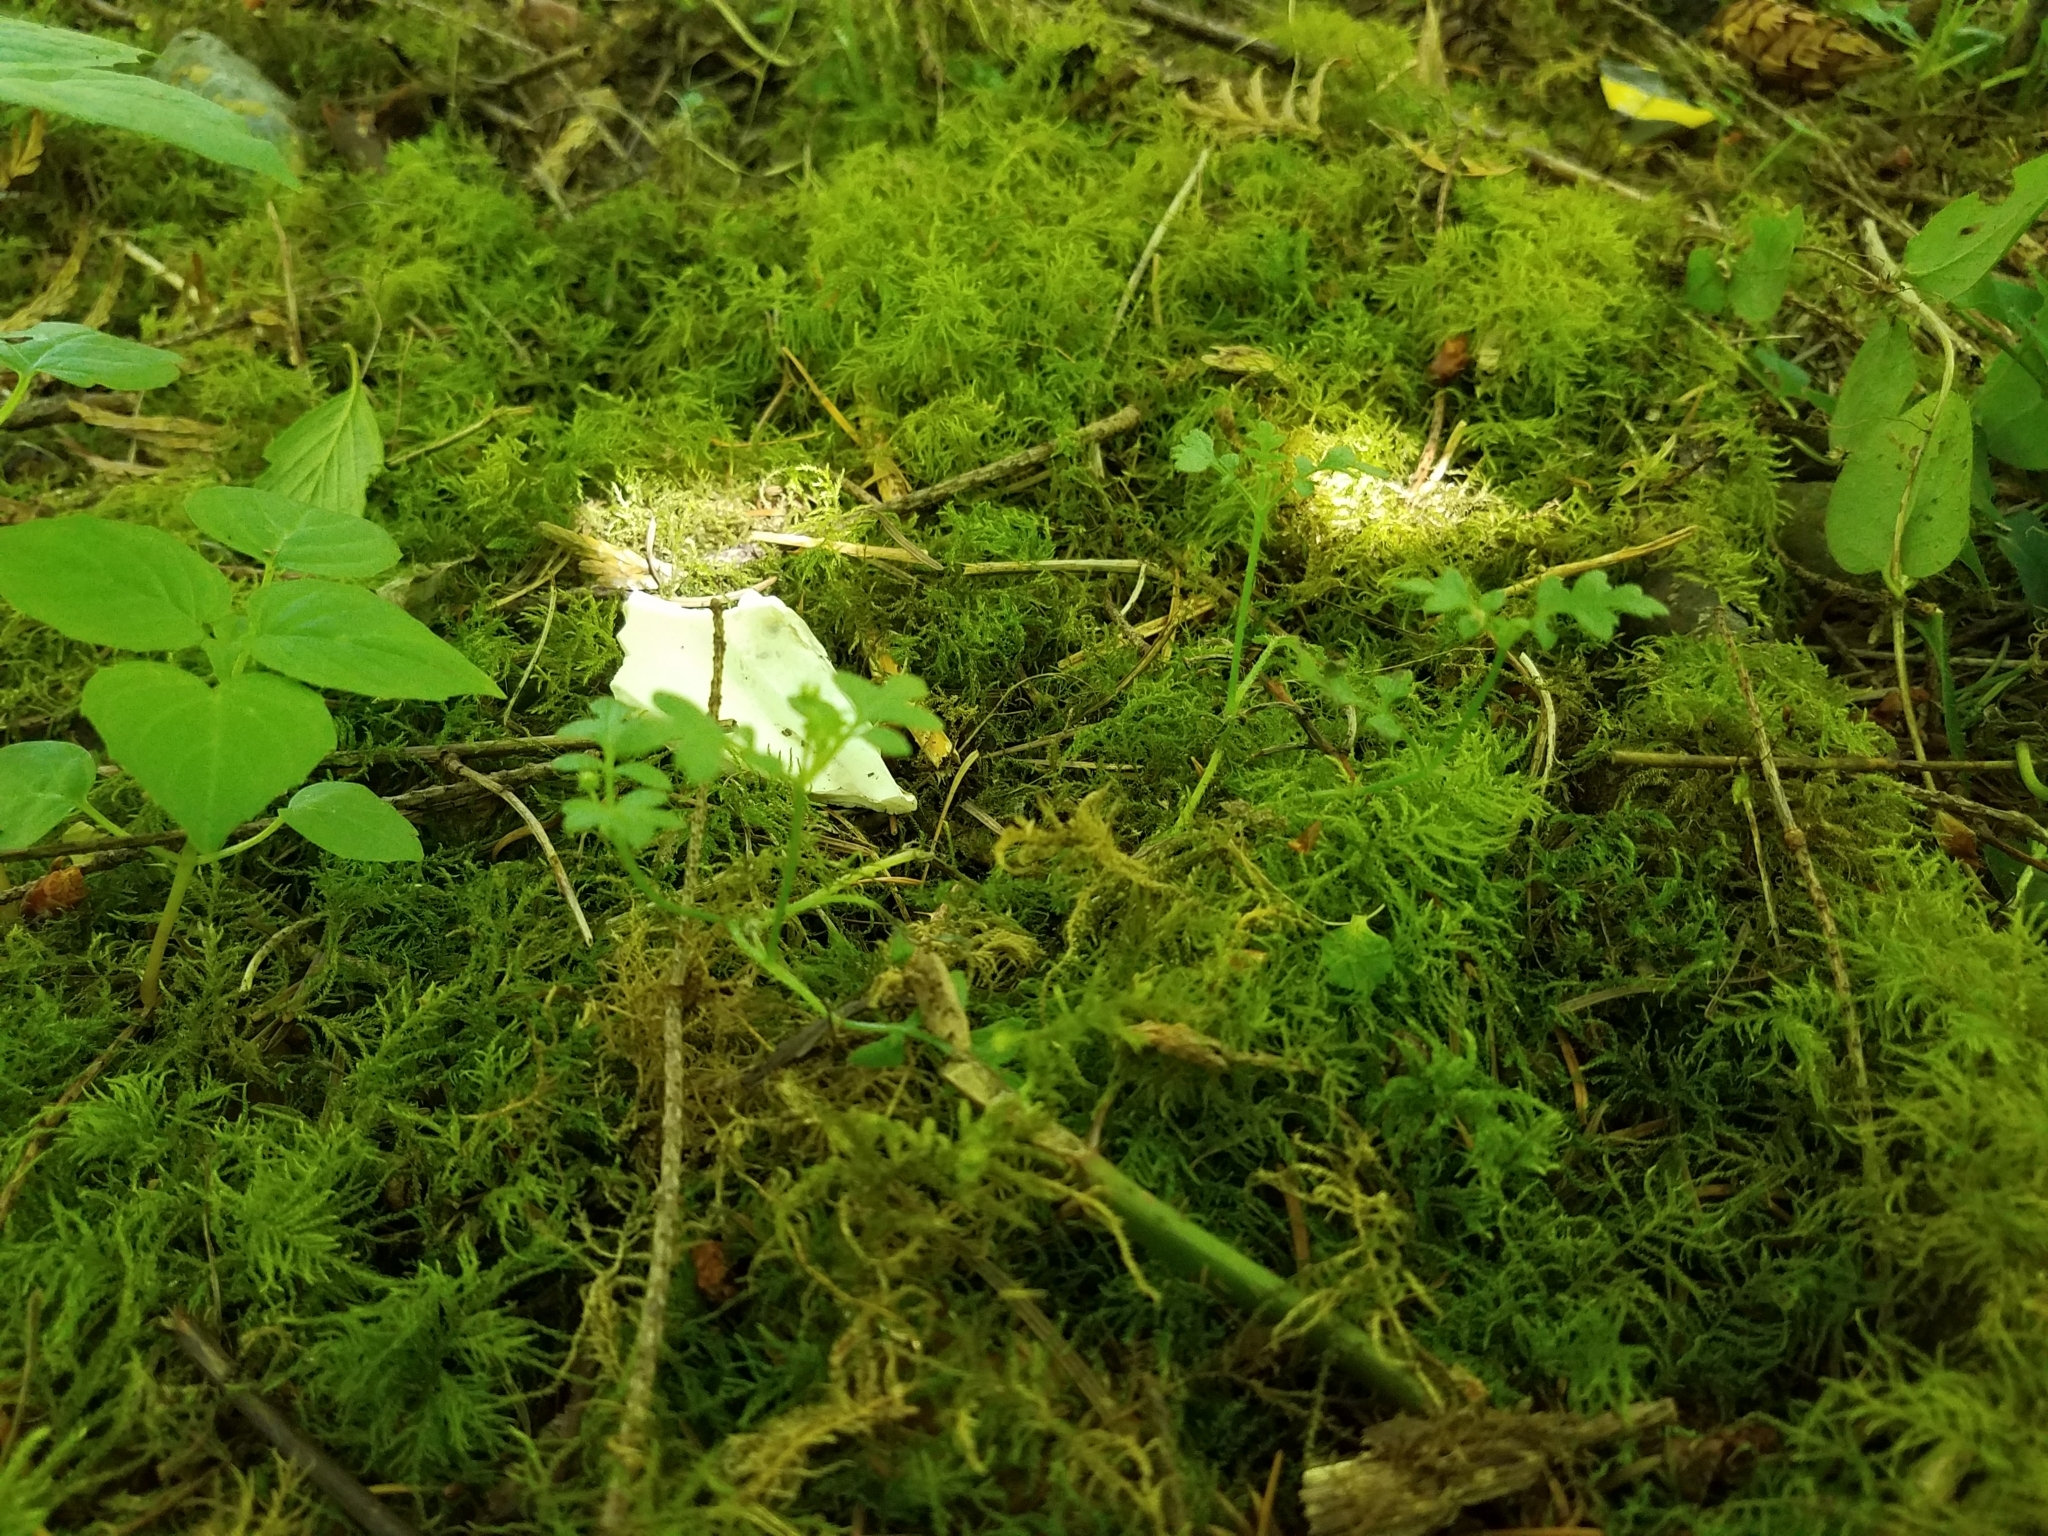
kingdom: Plantae
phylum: Tracheophyta
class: Magnoliopsida
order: Boraginales
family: Hydrophyllaceae
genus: Nemophila
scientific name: Nemophila parviflora
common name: Small-flowered baby-blue-eyes
